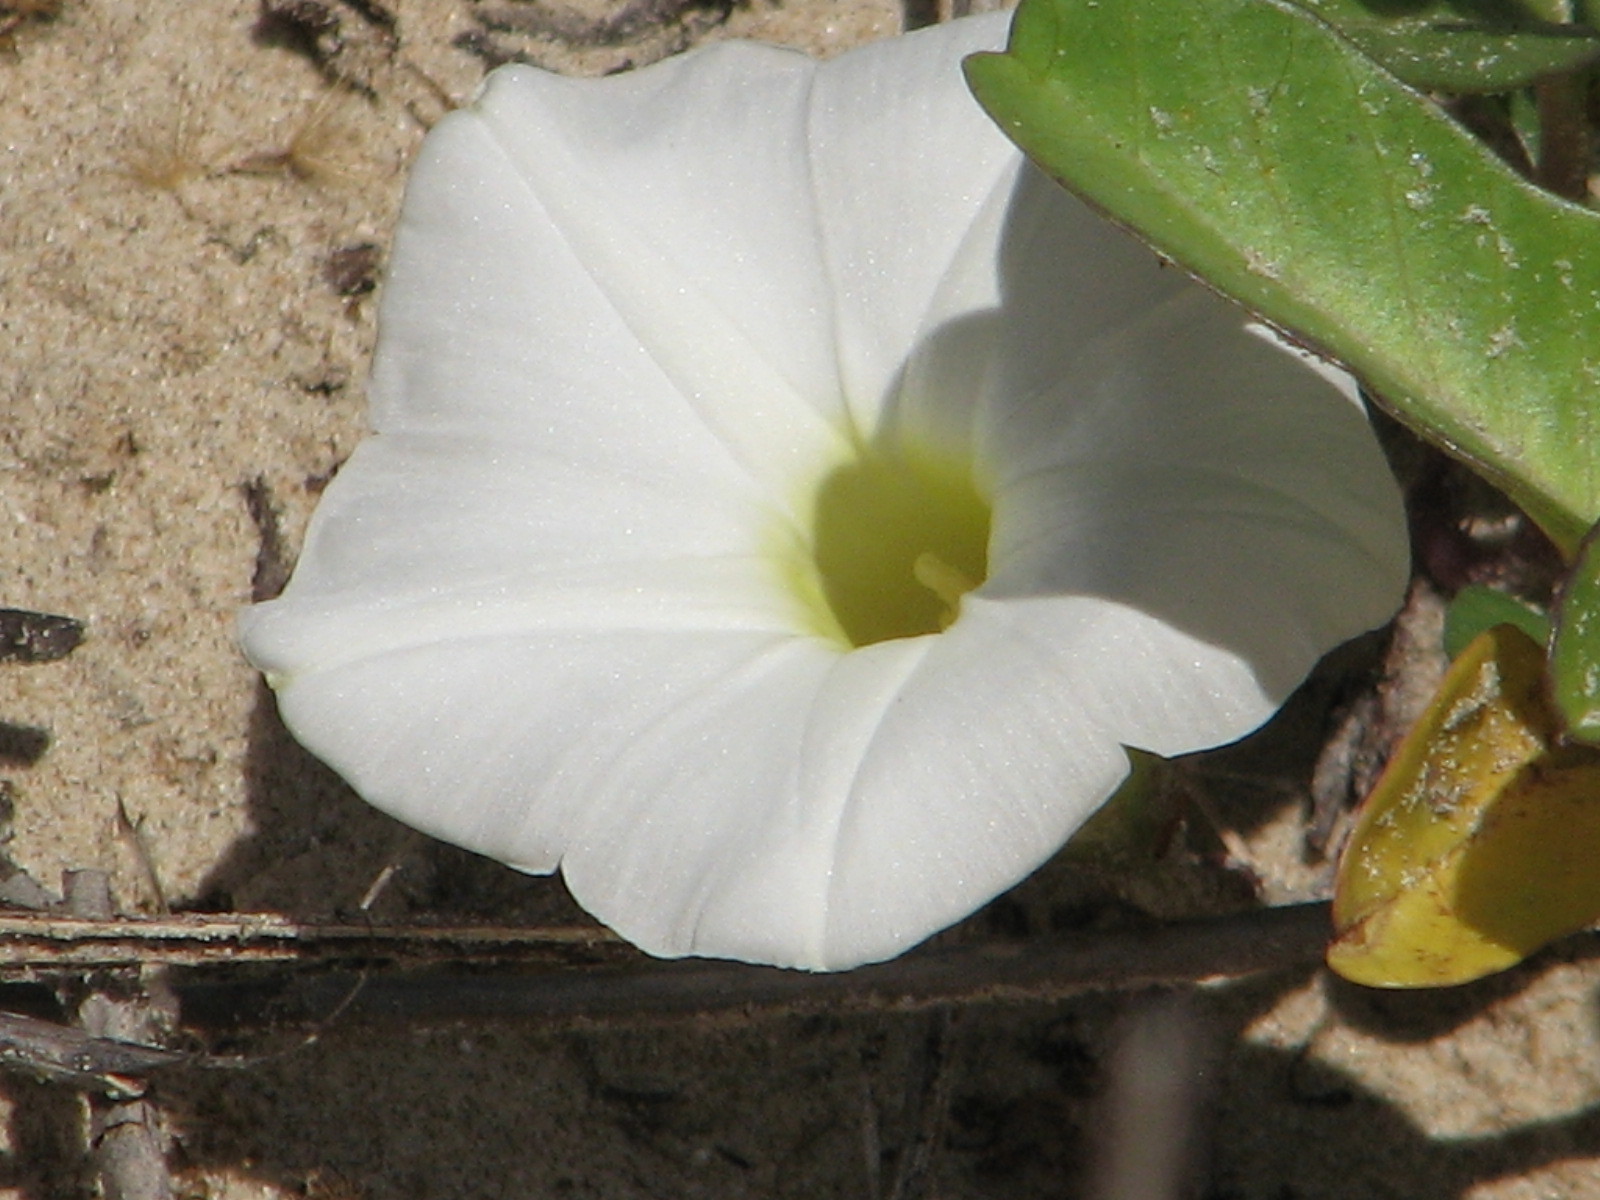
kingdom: Plantae
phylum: Tracheophyta
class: Magnoliopsida
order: Solanales
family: Convolvulaceae
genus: Ipomoea
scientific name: Ipomoea imperati
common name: Fiddle-leaf morning-glory
